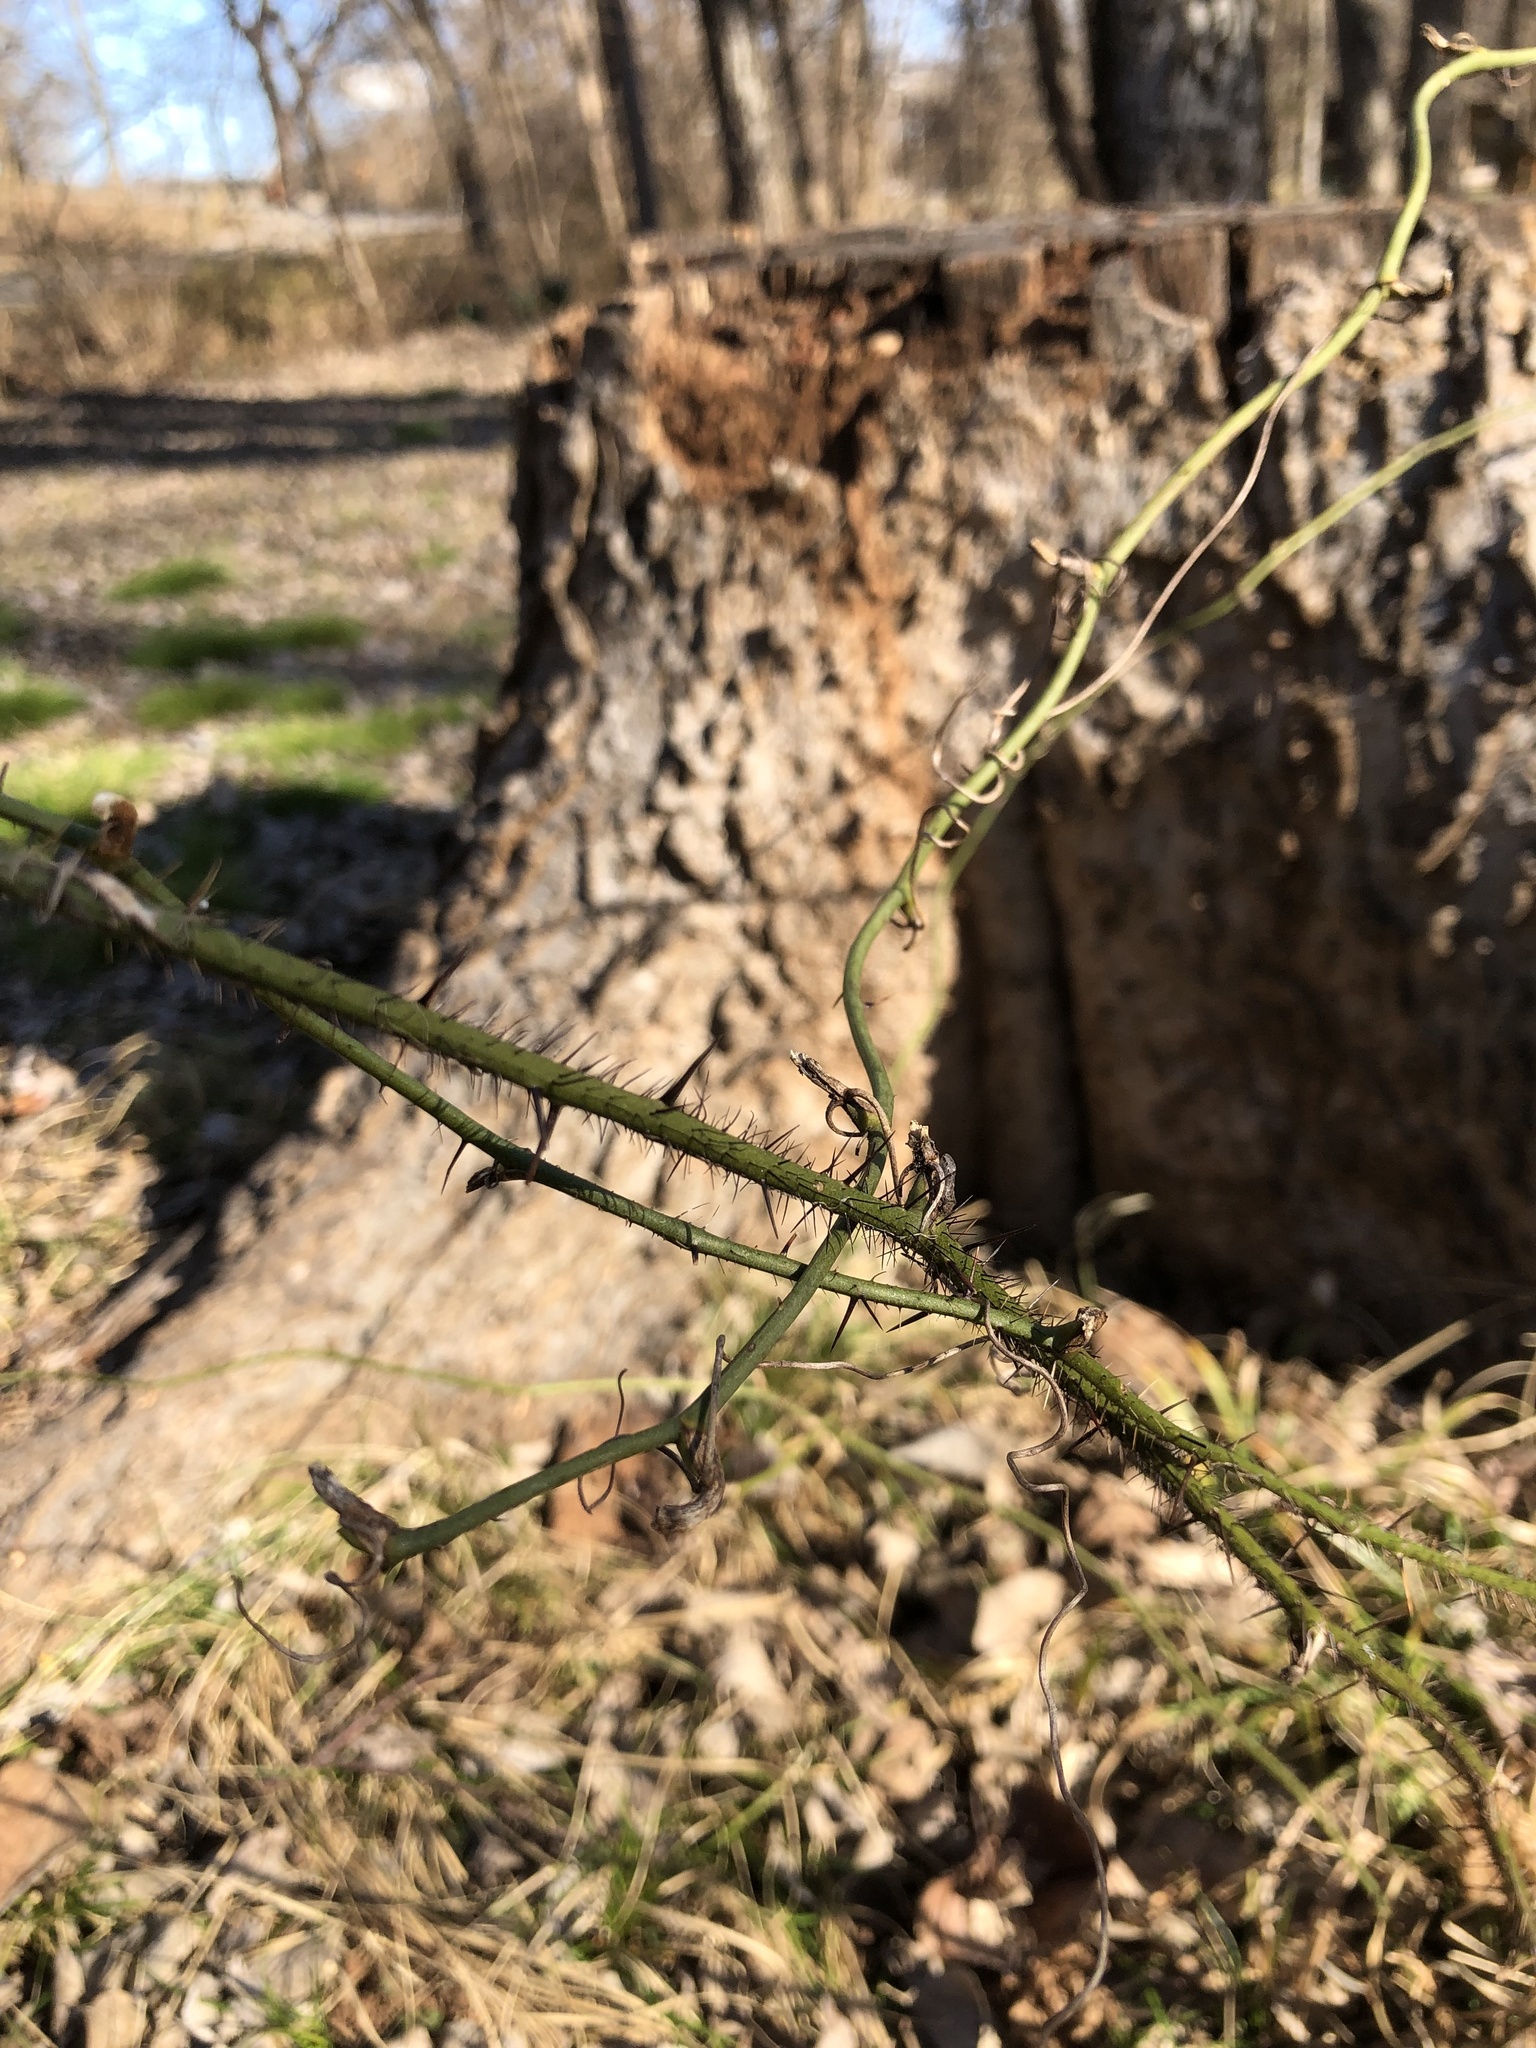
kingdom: Plantae
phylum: Tracheophyta
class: Liliopsida
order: Liliales
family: Smilacaceae
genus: Smilax
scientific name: Smilax tamnoides
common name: Hellfetter
